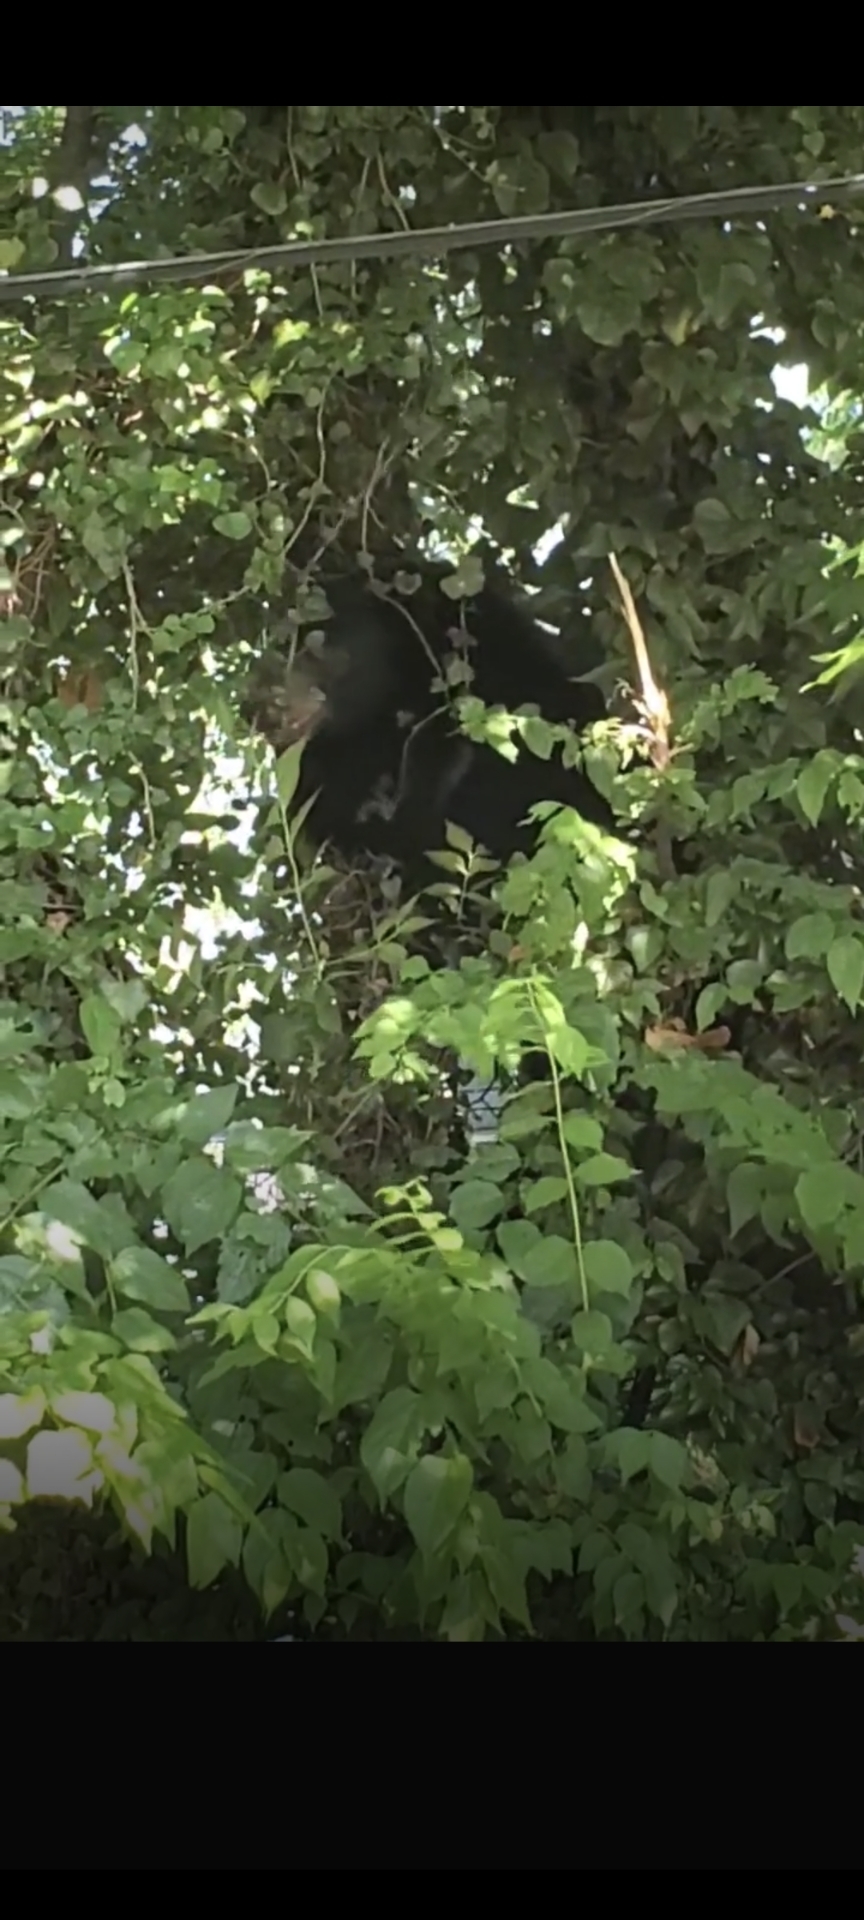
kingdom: Animalia
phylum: Chordata
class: Mammalia
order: Carnivora
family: Ursidae
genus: Ursus
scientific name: Ursus americanus
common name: American black bear
